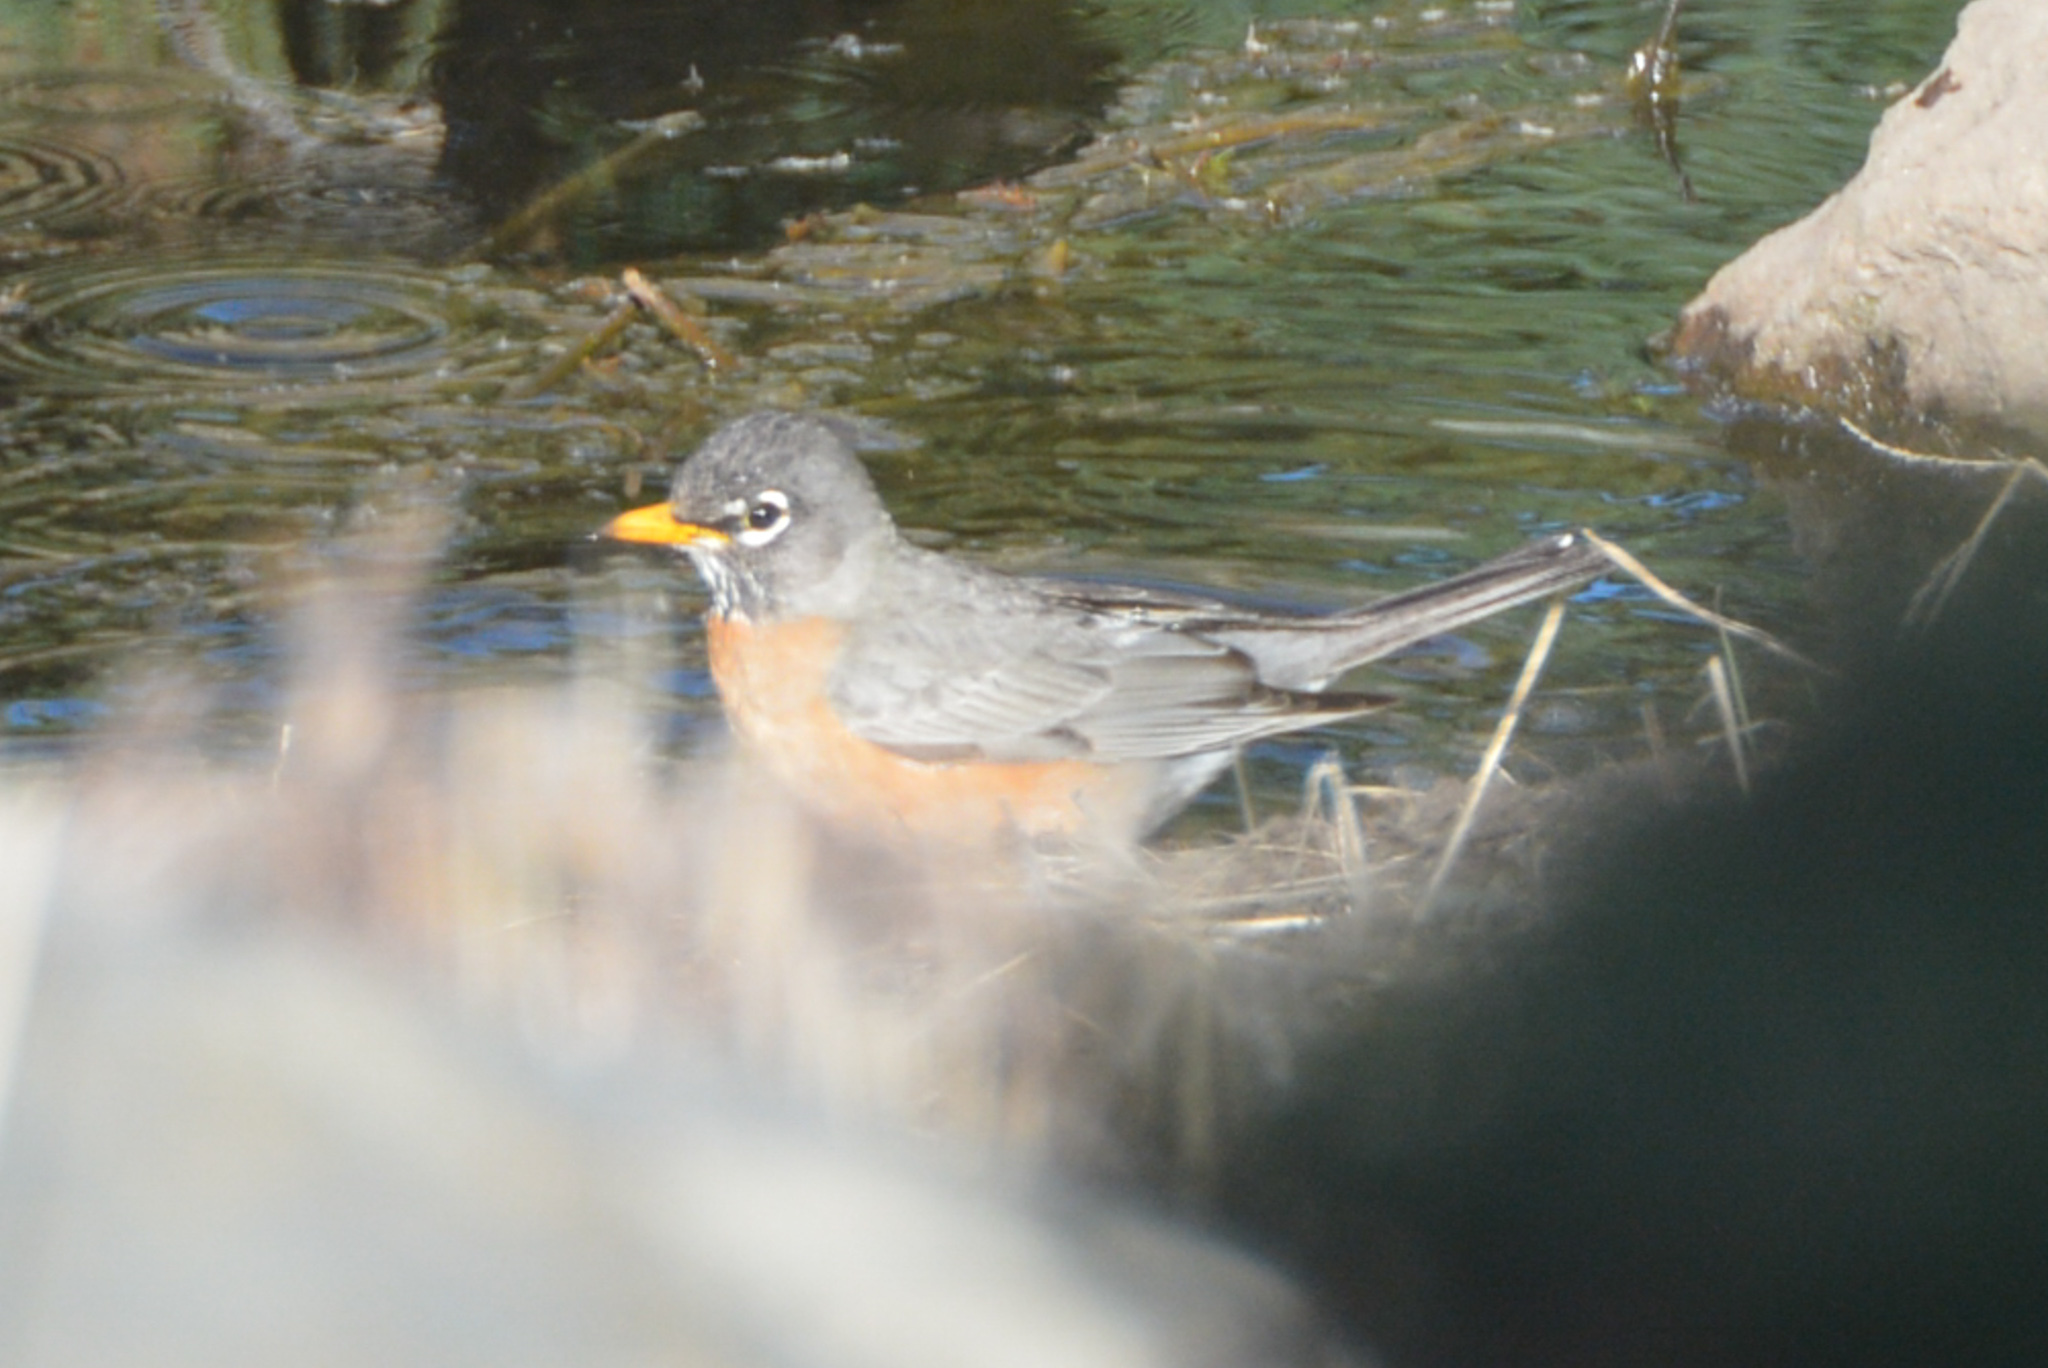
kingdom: Animalia
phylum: Chordata
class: Aves
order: Passeriformes
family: Turdidae
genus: Turdus
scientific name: Turdus migratorius
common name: American robin
